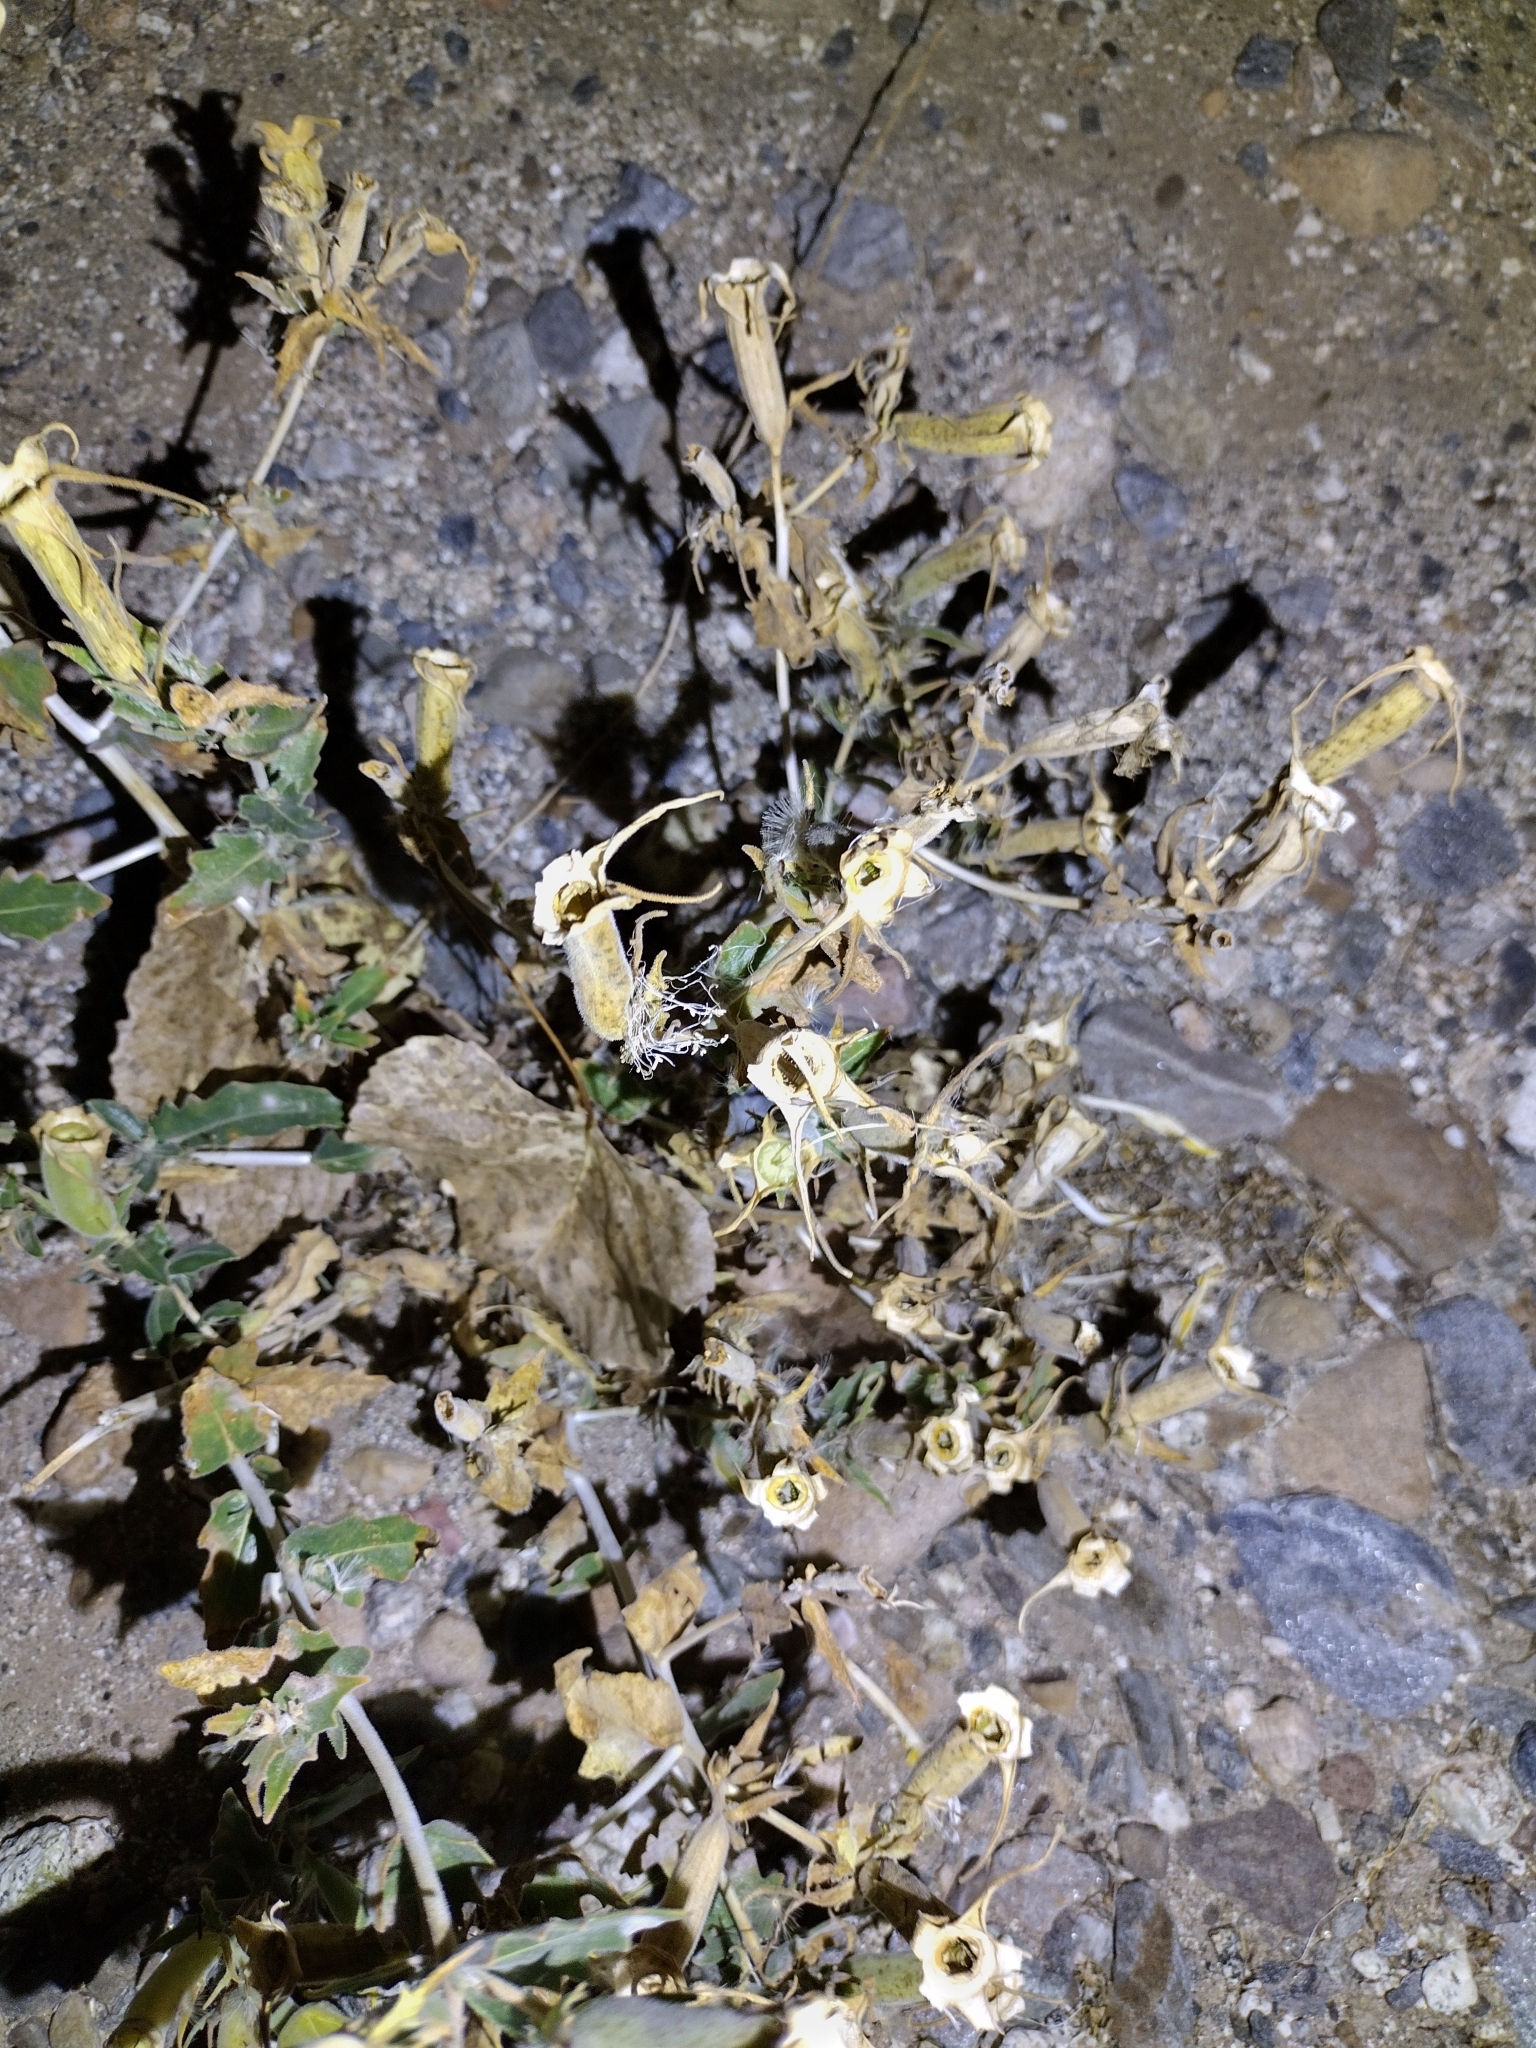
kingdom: Plantae
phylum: Tracheophyta
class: Magnoliopsida
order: Cornales
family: Loasaceae
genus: Mentzelia
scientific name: Mentzelia laevicaulis
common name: Smooth-stem blazingstar
